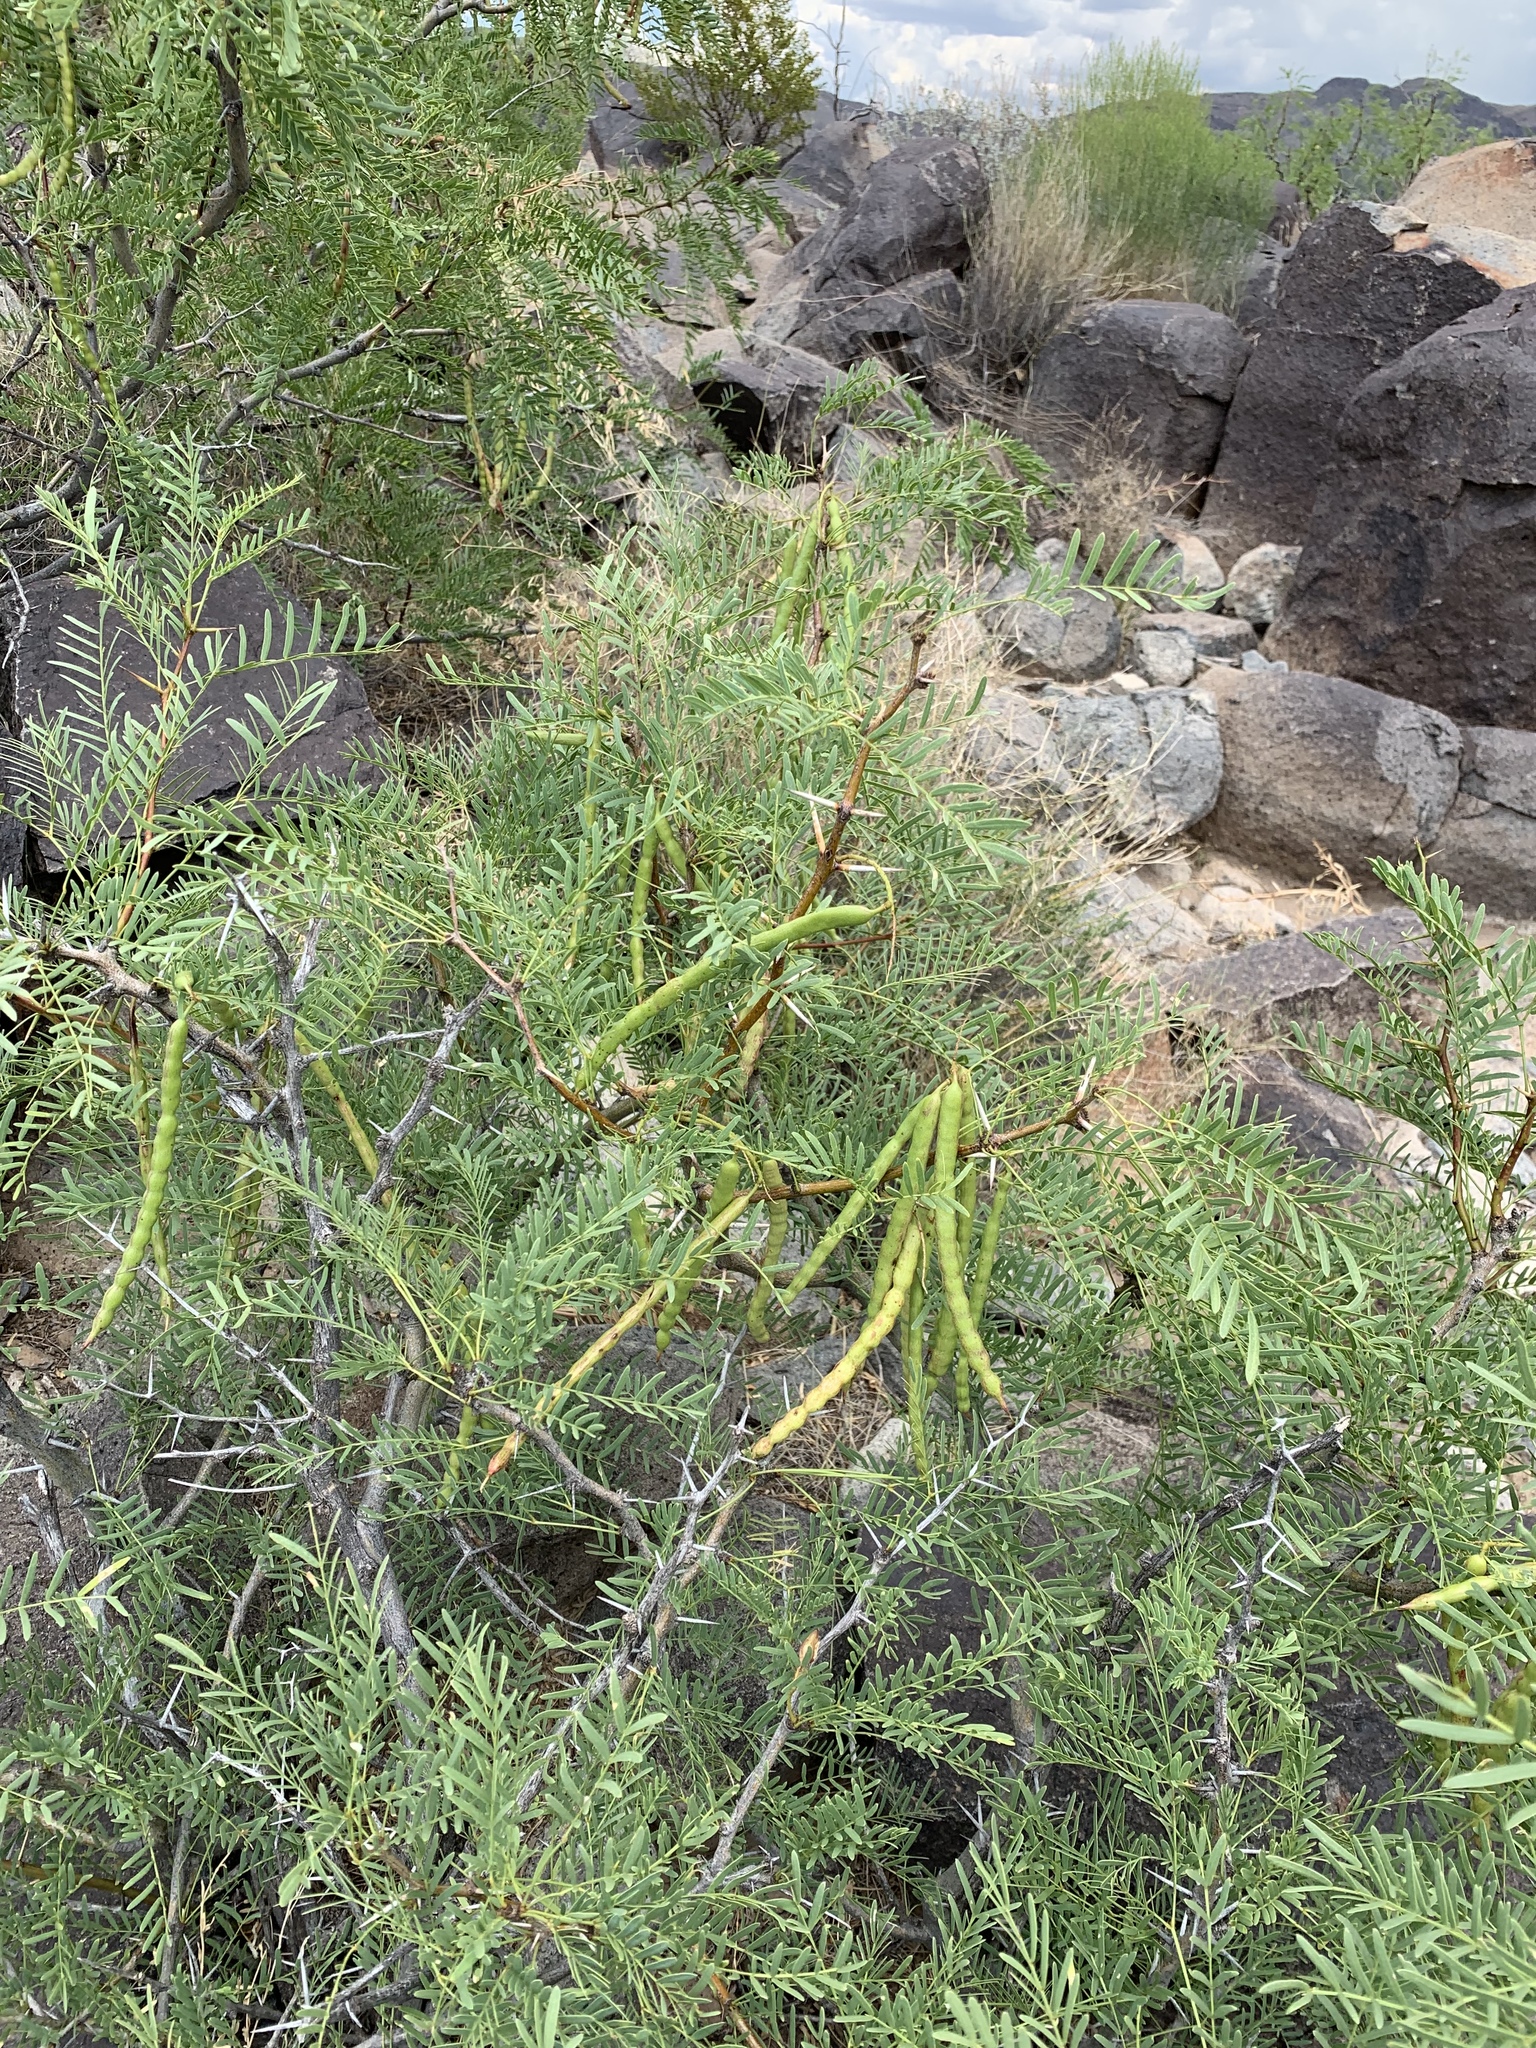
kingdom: Plantae
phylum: Tracheophyta
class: Magnoliopsida
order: Fabales
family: Fabaceae
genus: Prosopis
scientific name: Prosopis glandulosa
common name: Honey mesquite
